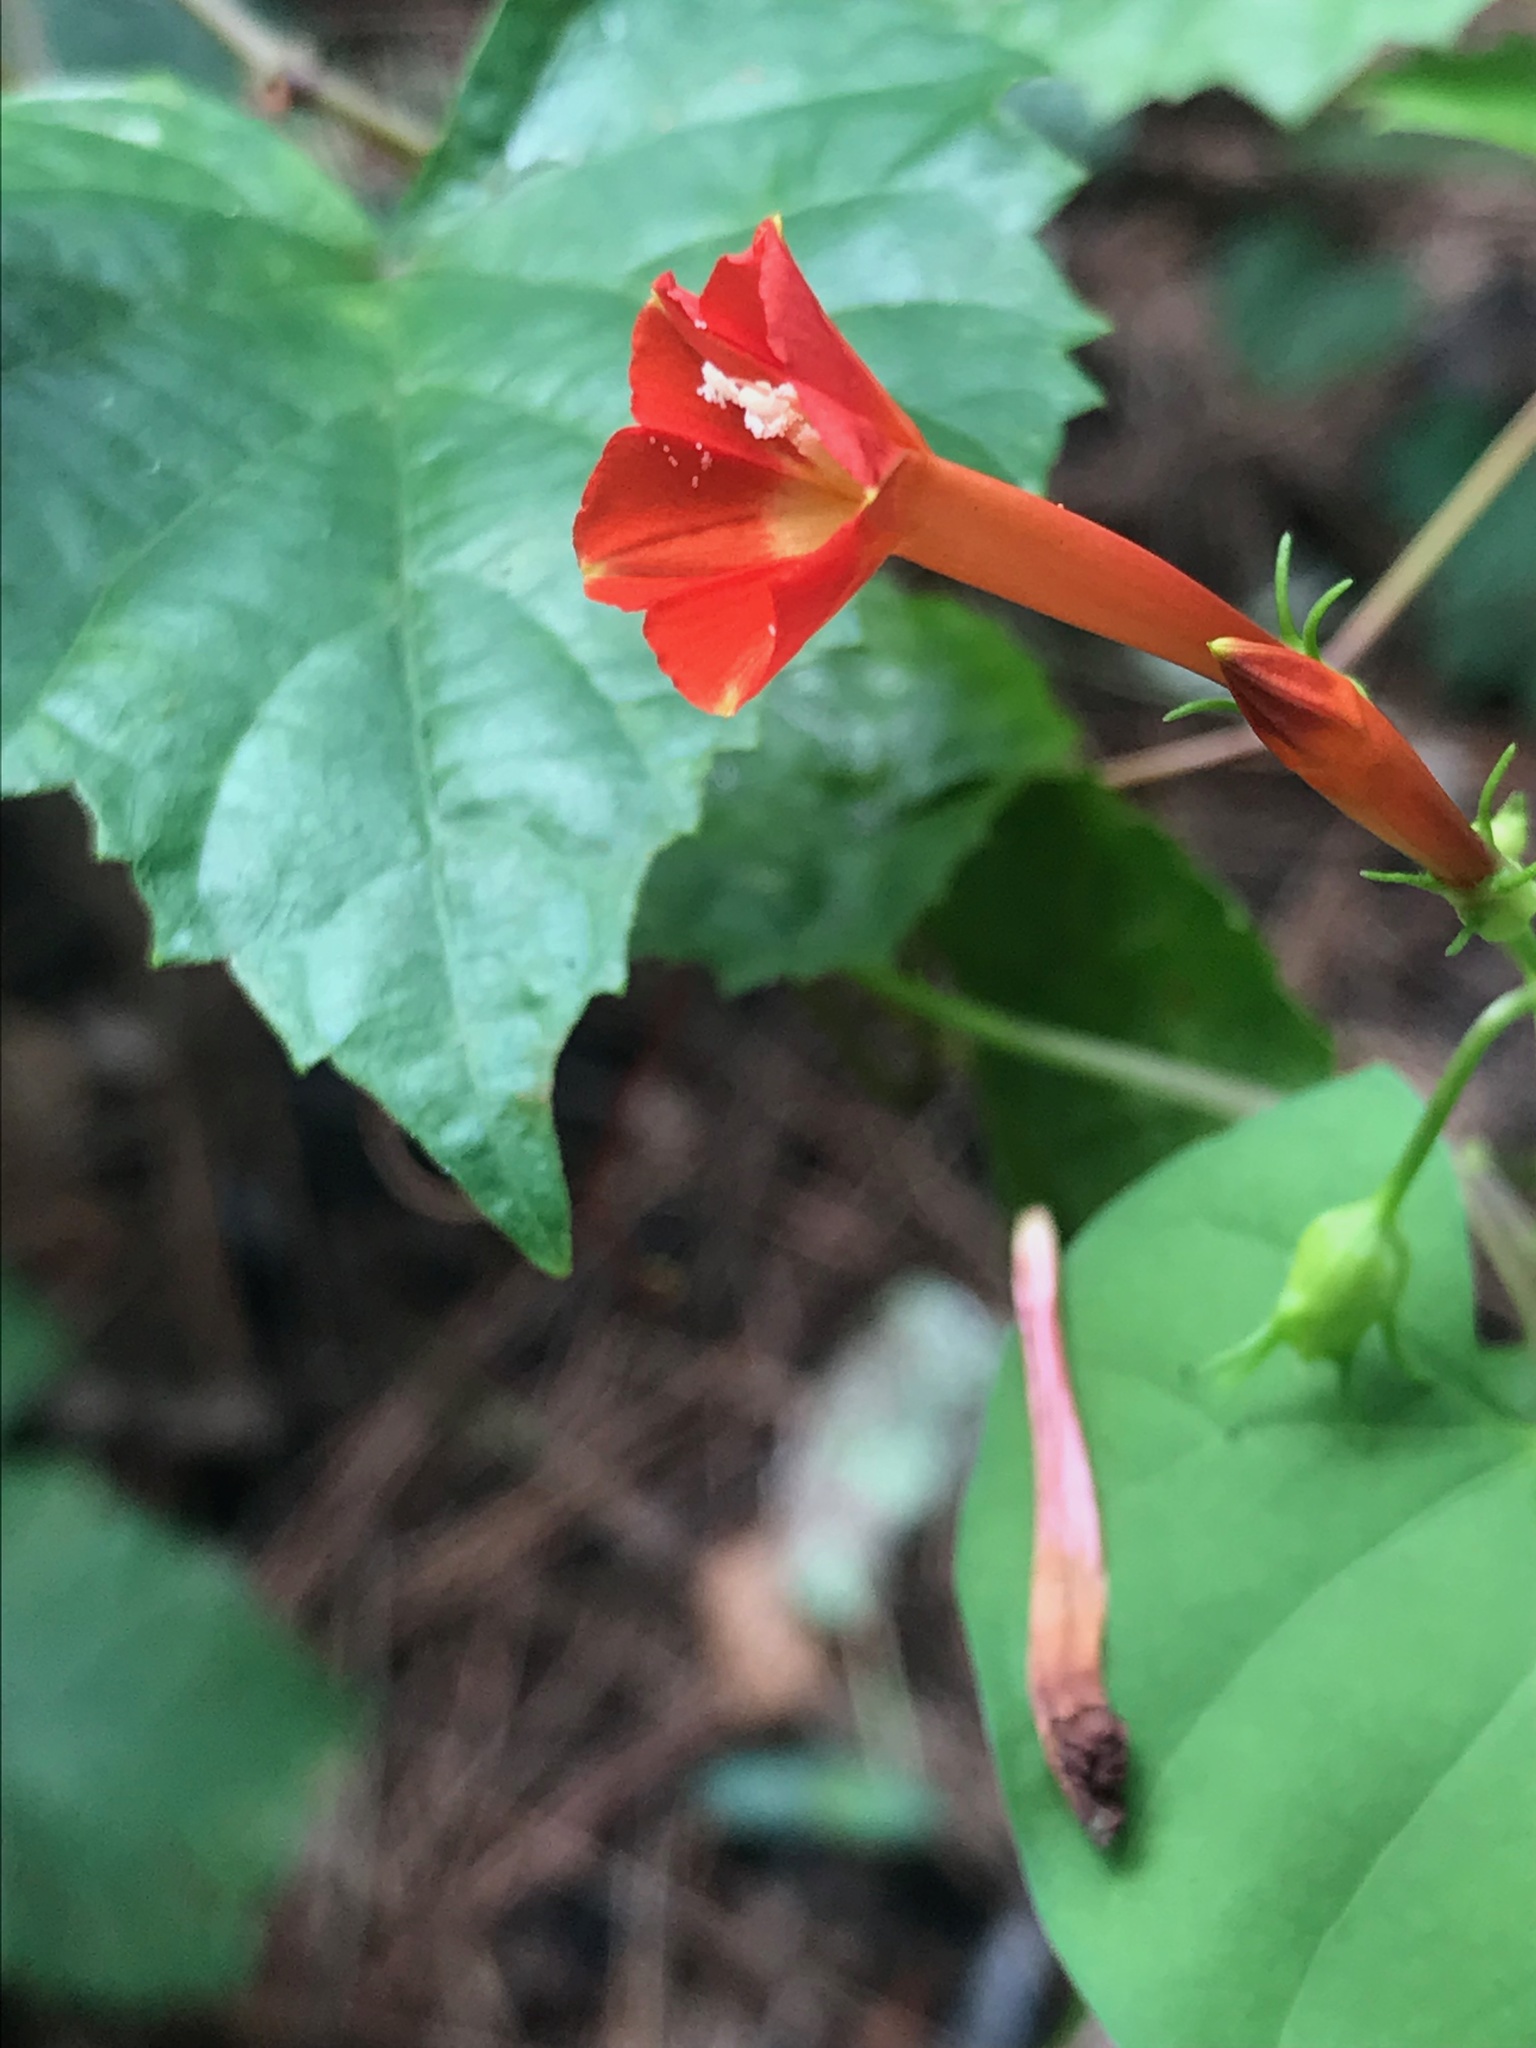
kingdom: Plantae
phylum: Tracheophyta
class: Magnoliopsida
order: Solanales
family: Convolvulaceae
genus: Ipomoea
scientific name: Ipomoea coccinea
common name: Red morning-glory
